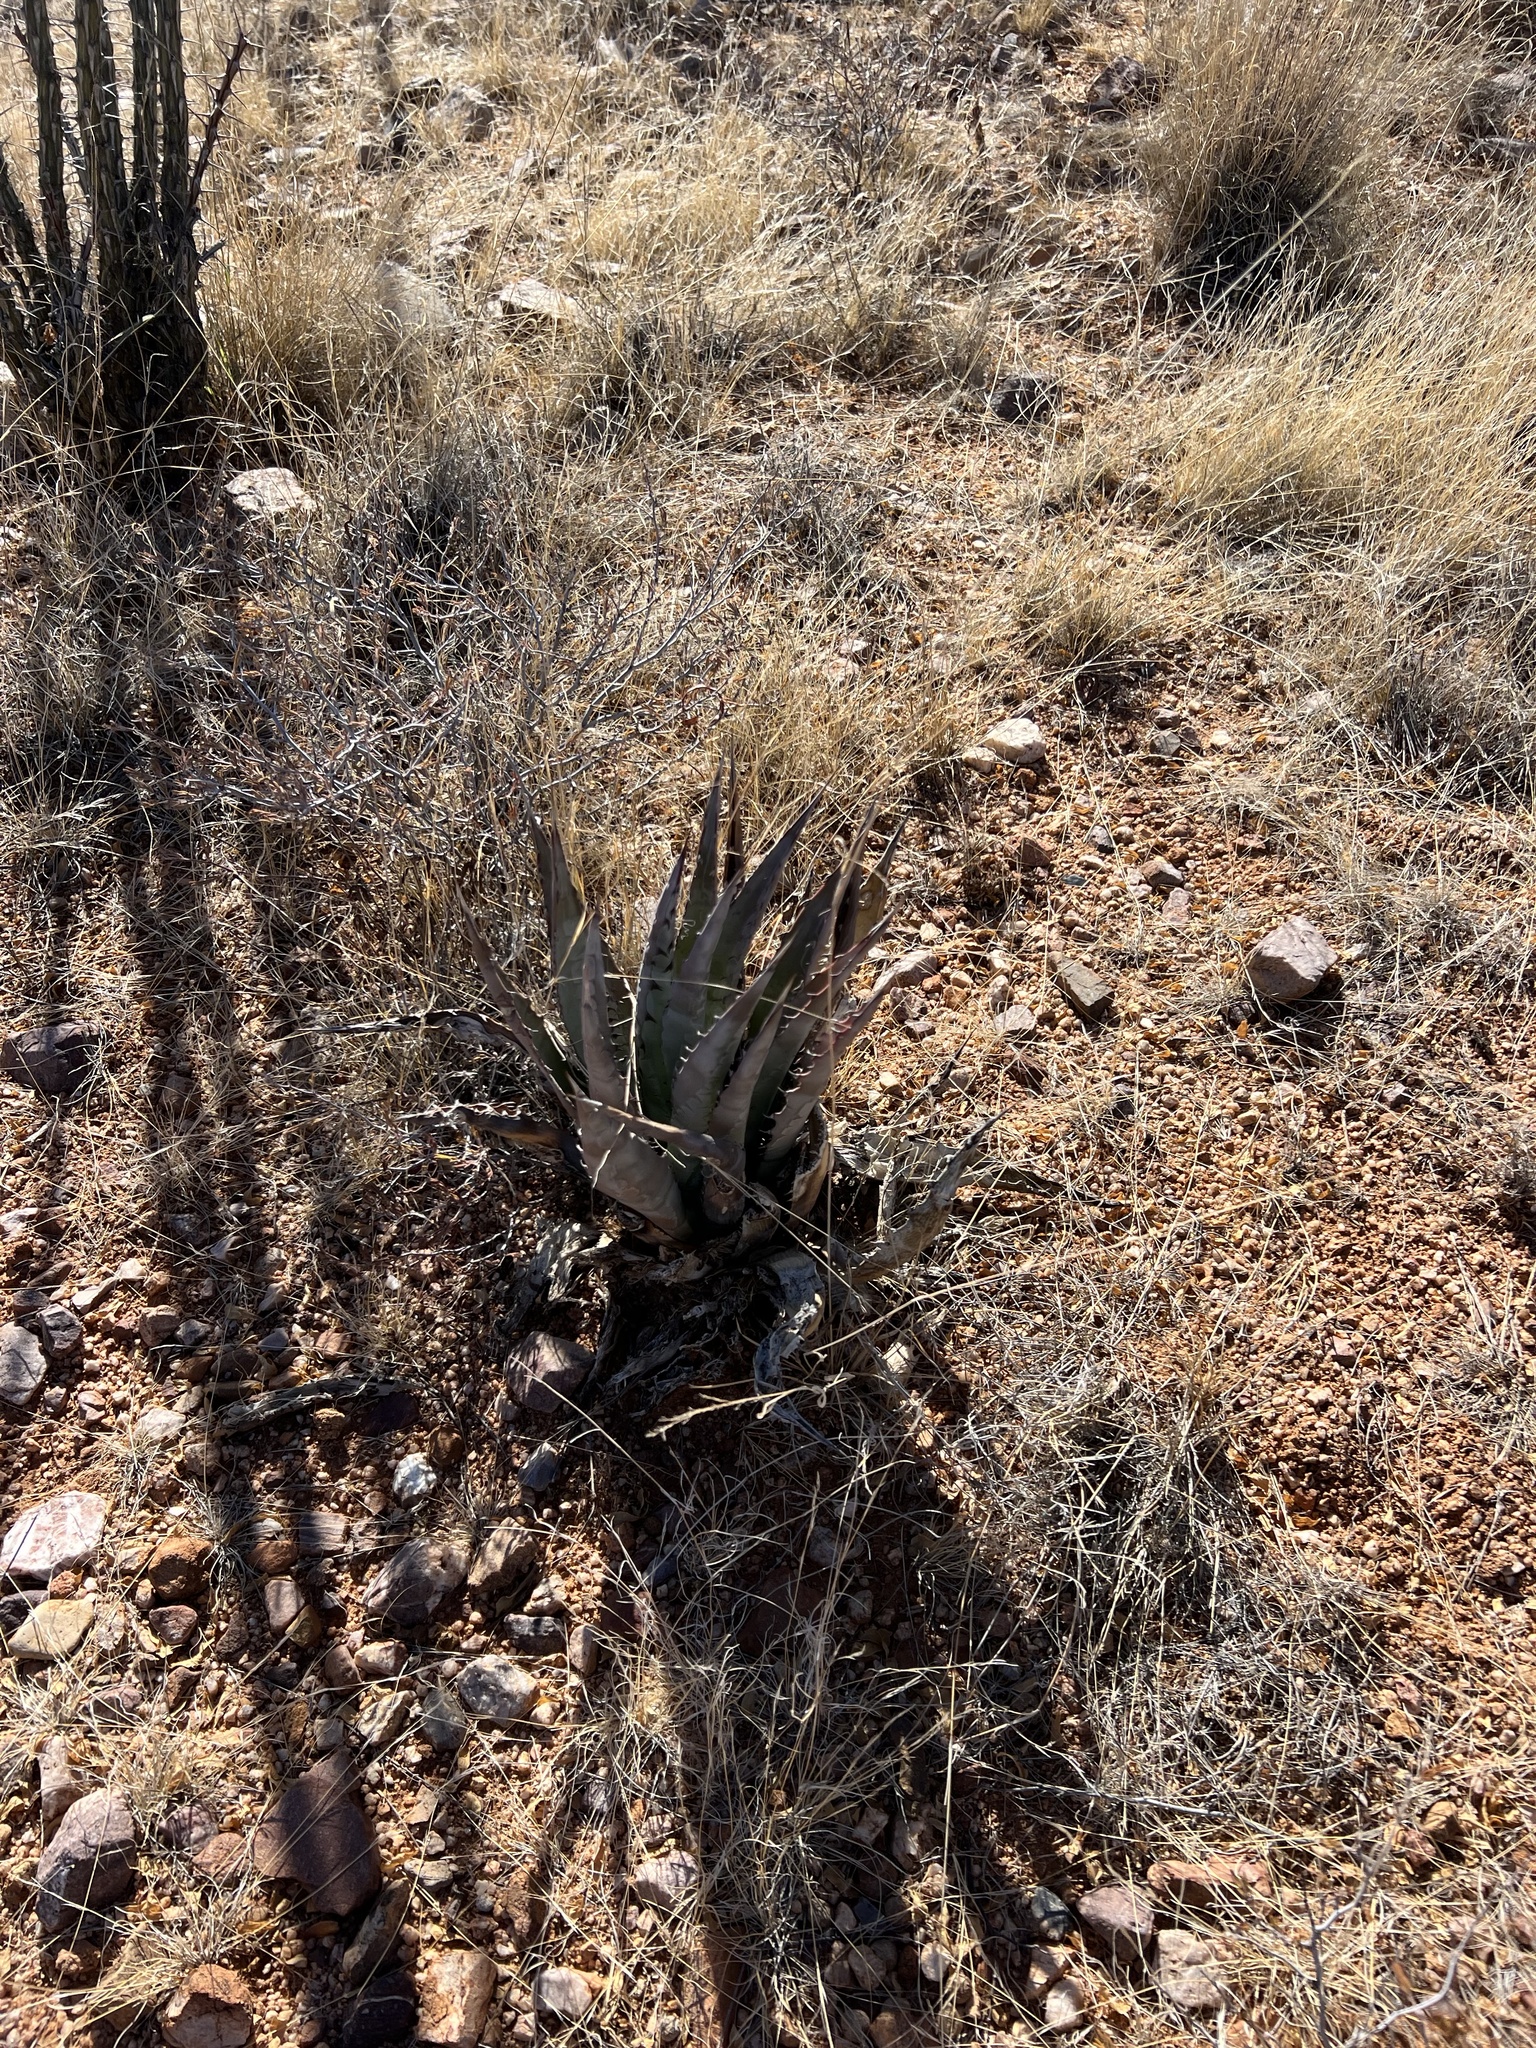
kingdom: Plantae
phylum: Tracheophyta
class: Liliopsida
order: Asparagales
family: Asparagaceae
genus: Agave
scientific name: Agave palmeri
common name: Palmer agave
